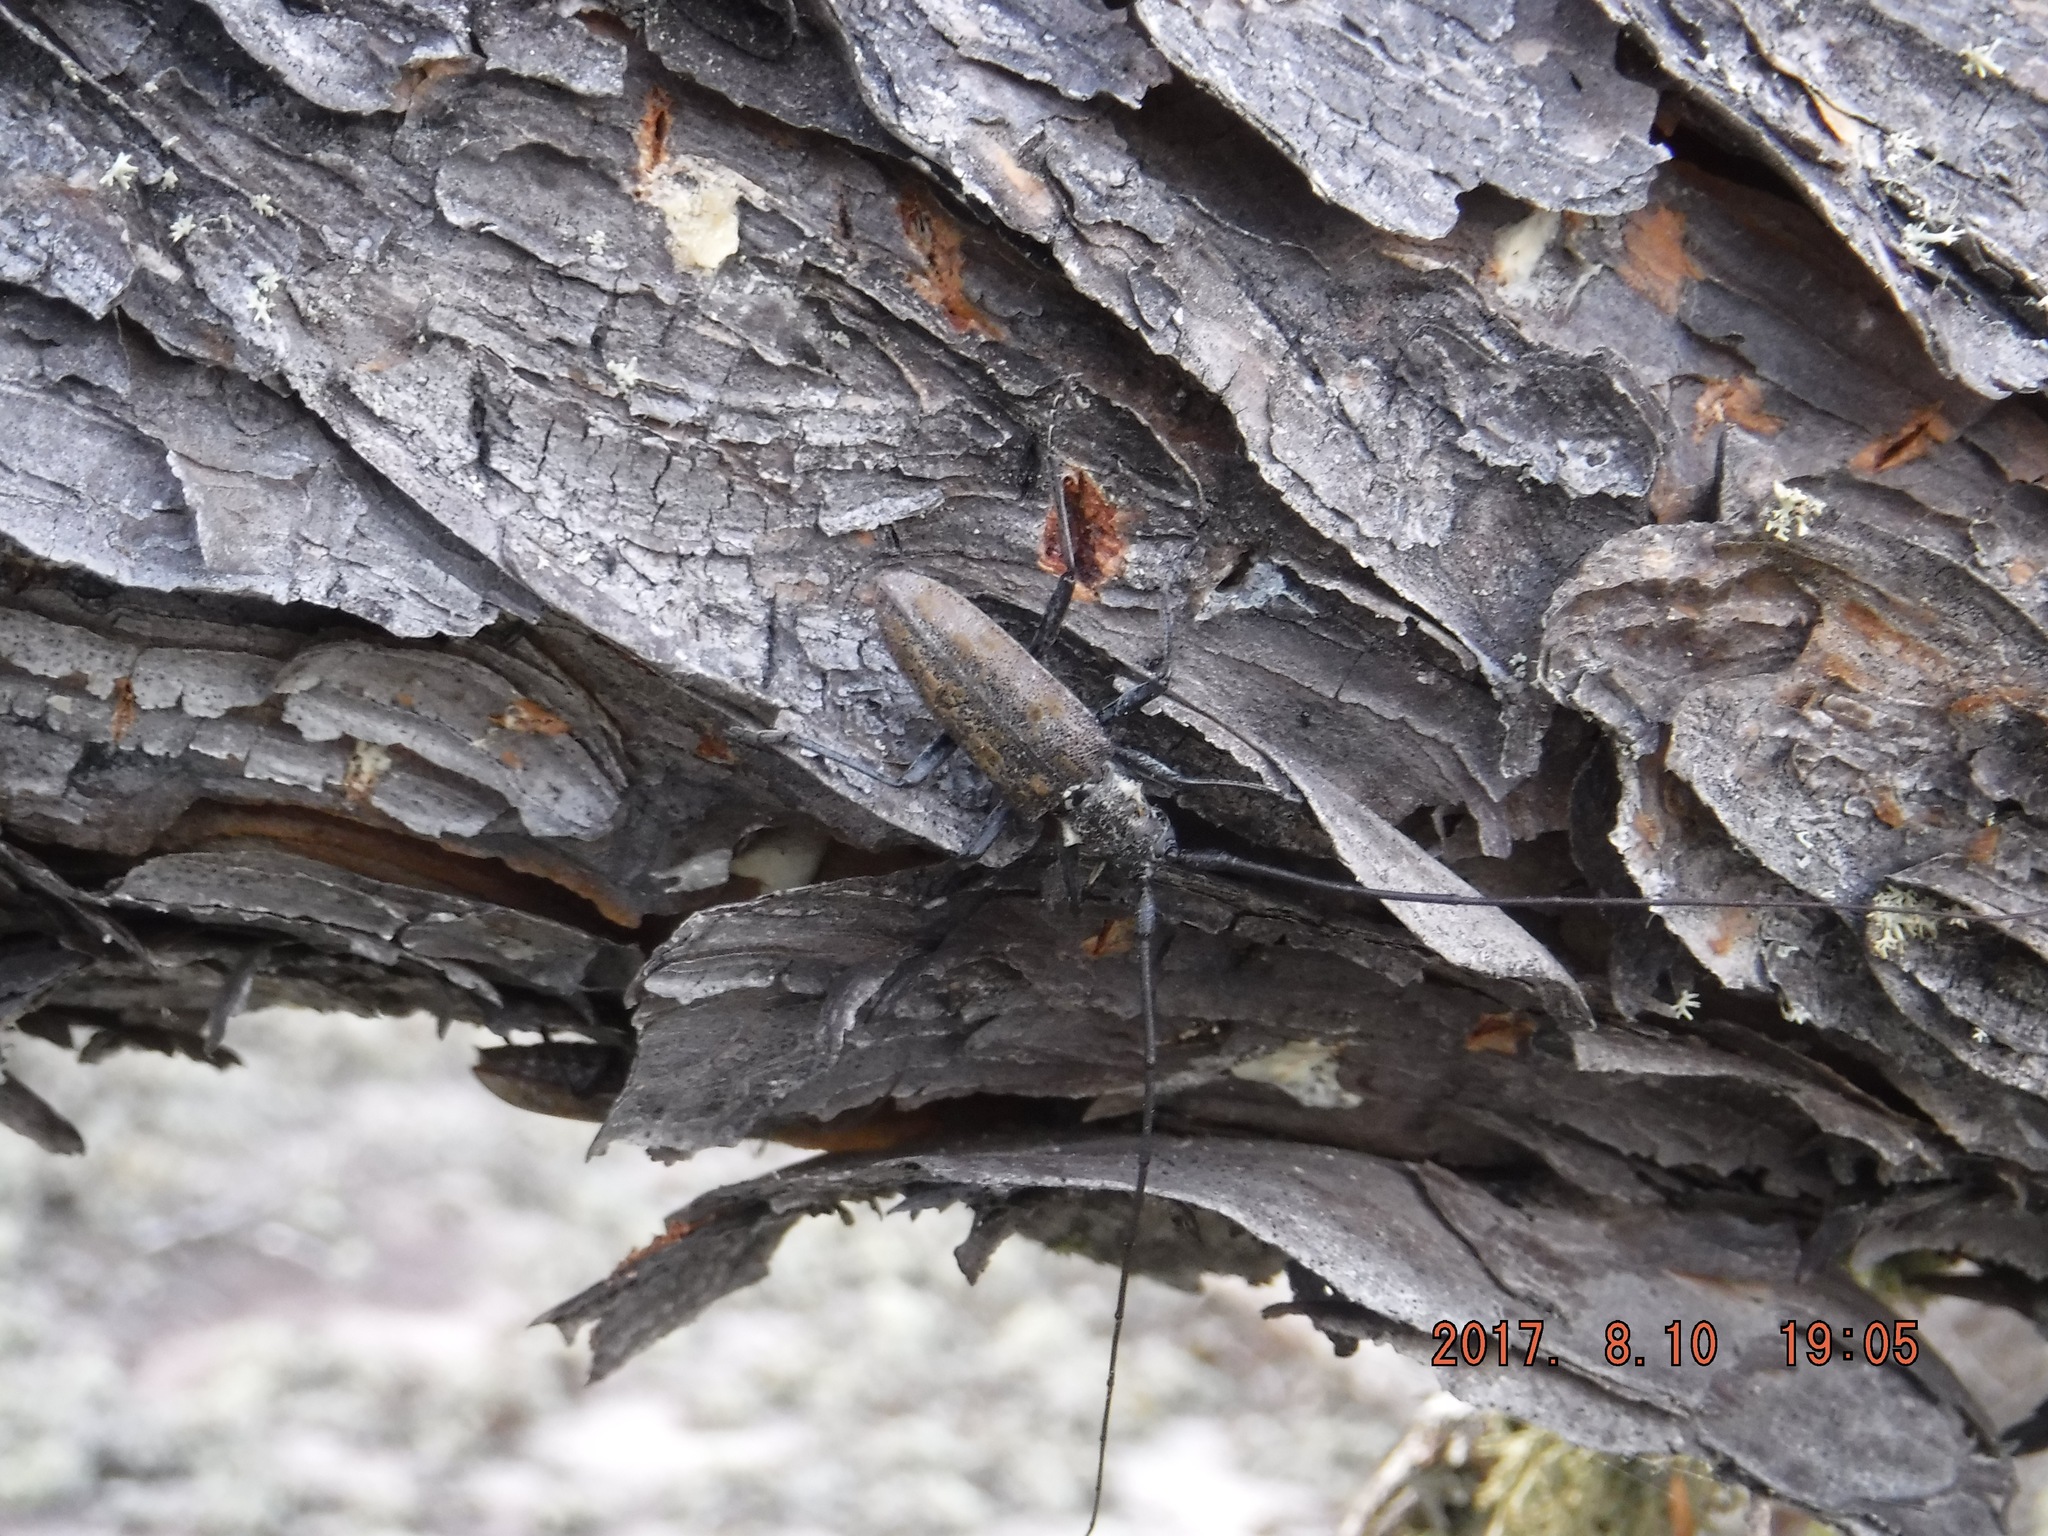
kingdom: Animalia
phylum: Arthropoda
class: Insecta
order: Coleoptera
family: Cerambycidae
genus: Monochamus
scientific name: Monochamus notatus
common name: Northeastern pine sawyer beetle
